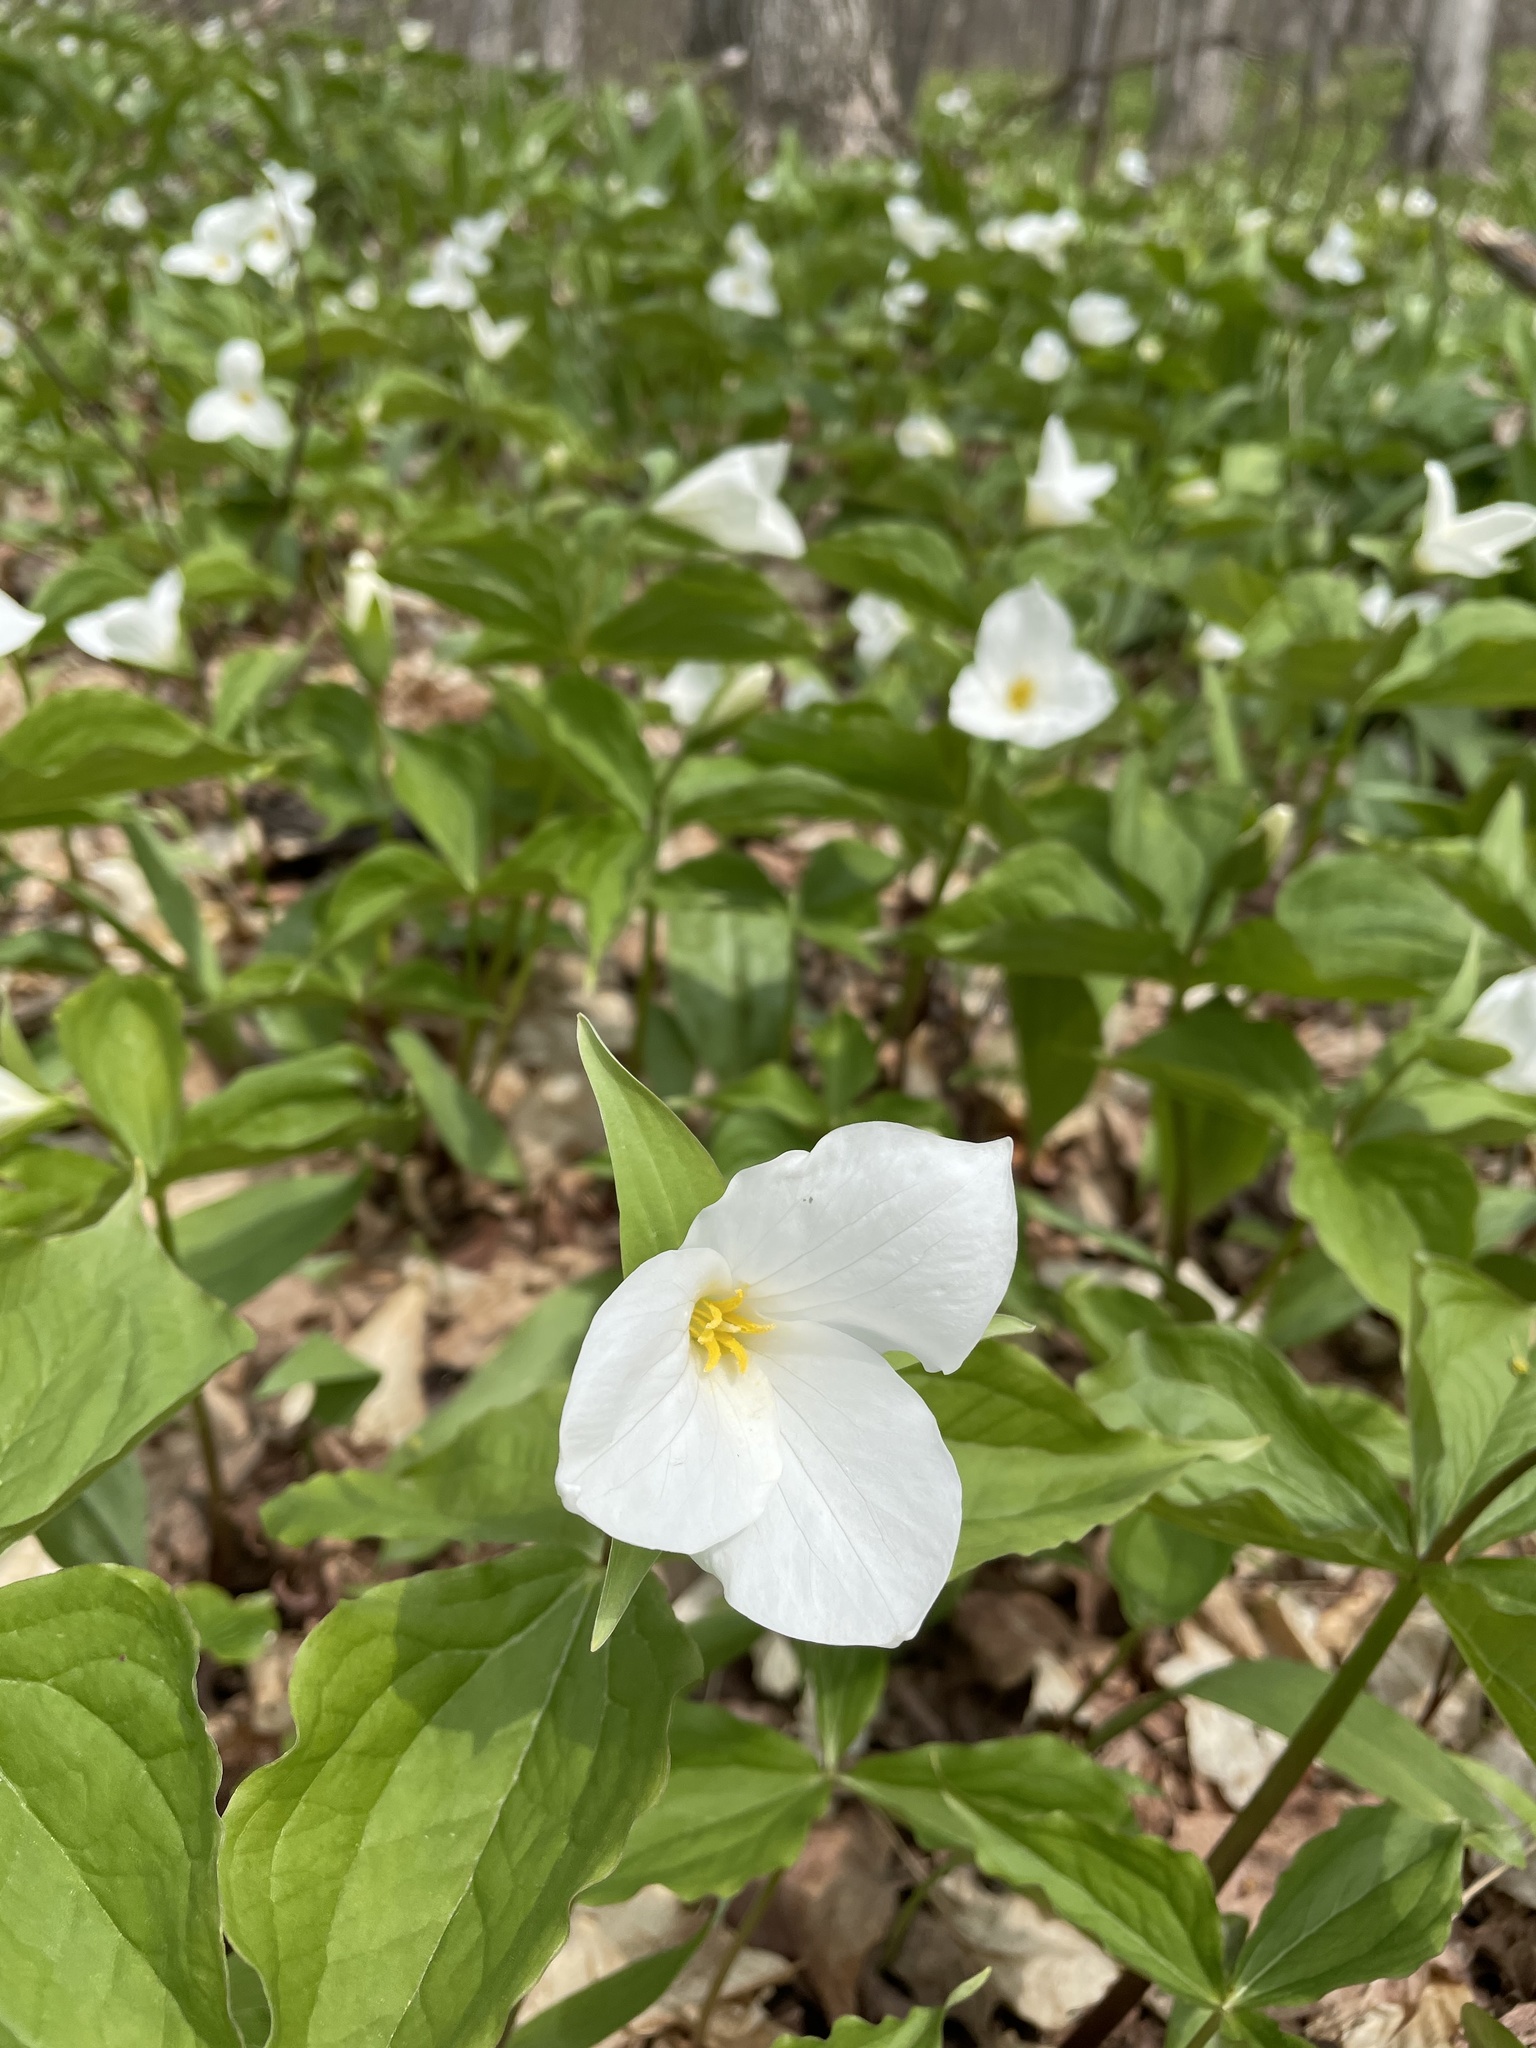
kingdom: Plantae
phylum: Tracheophyta
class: Liliopsida
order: Liliales
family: Melanthiaceae
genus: Trillium
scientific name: Trillium grandiflorum
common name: Great white trillium
